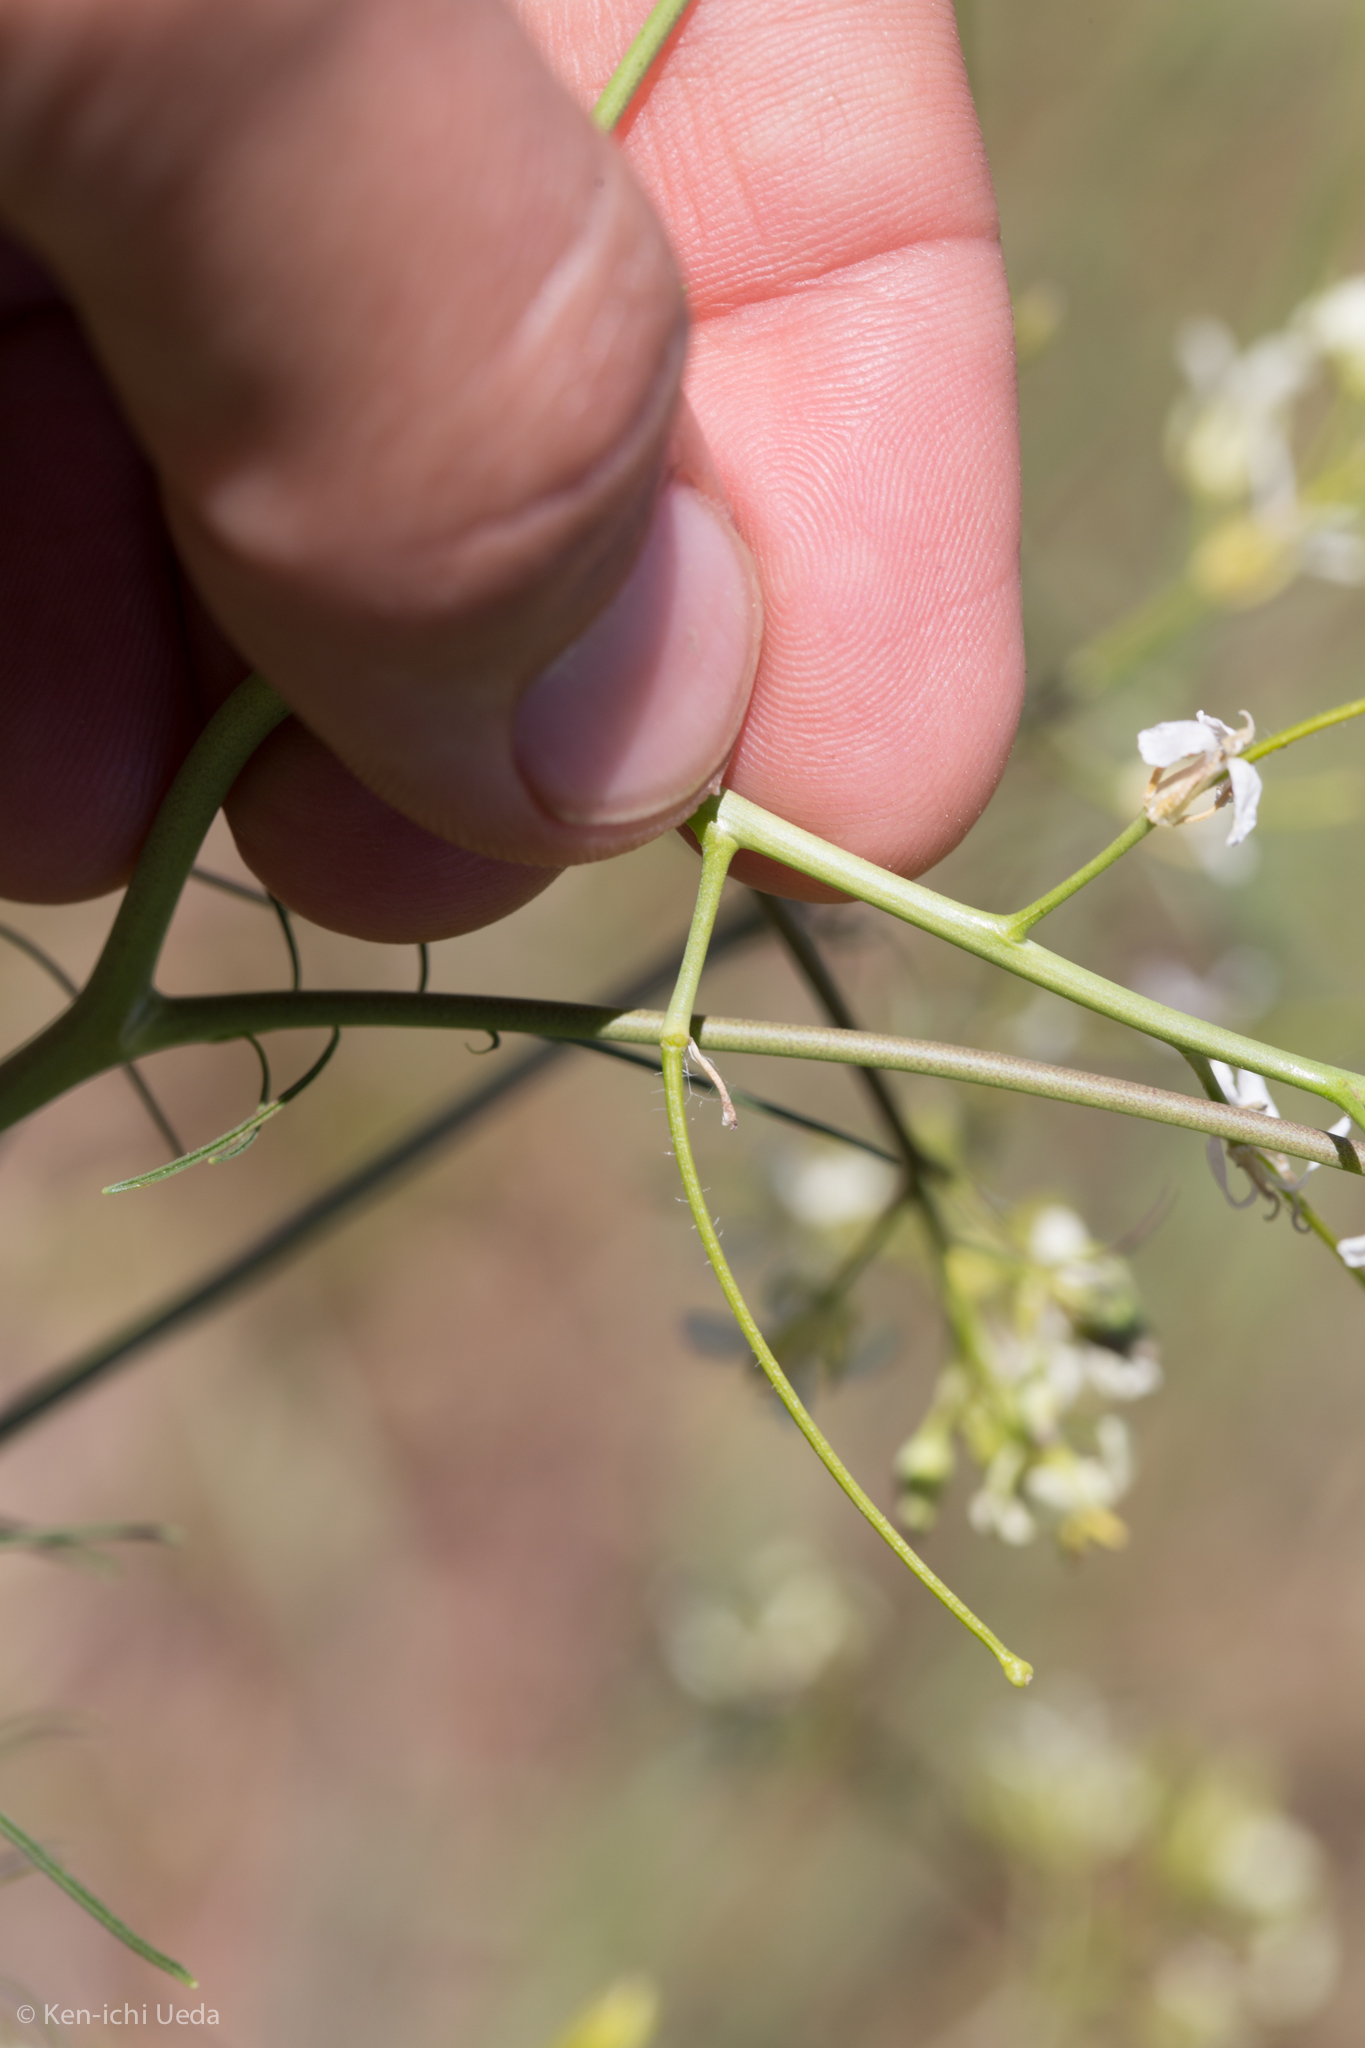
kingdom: Plantae
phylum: Tracheophyta
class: Magnoliopsida
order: Brassicales
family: Brassicaceae
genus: Sisymbrium
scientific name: Sisymbrium altissimum
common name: Tall rocket
